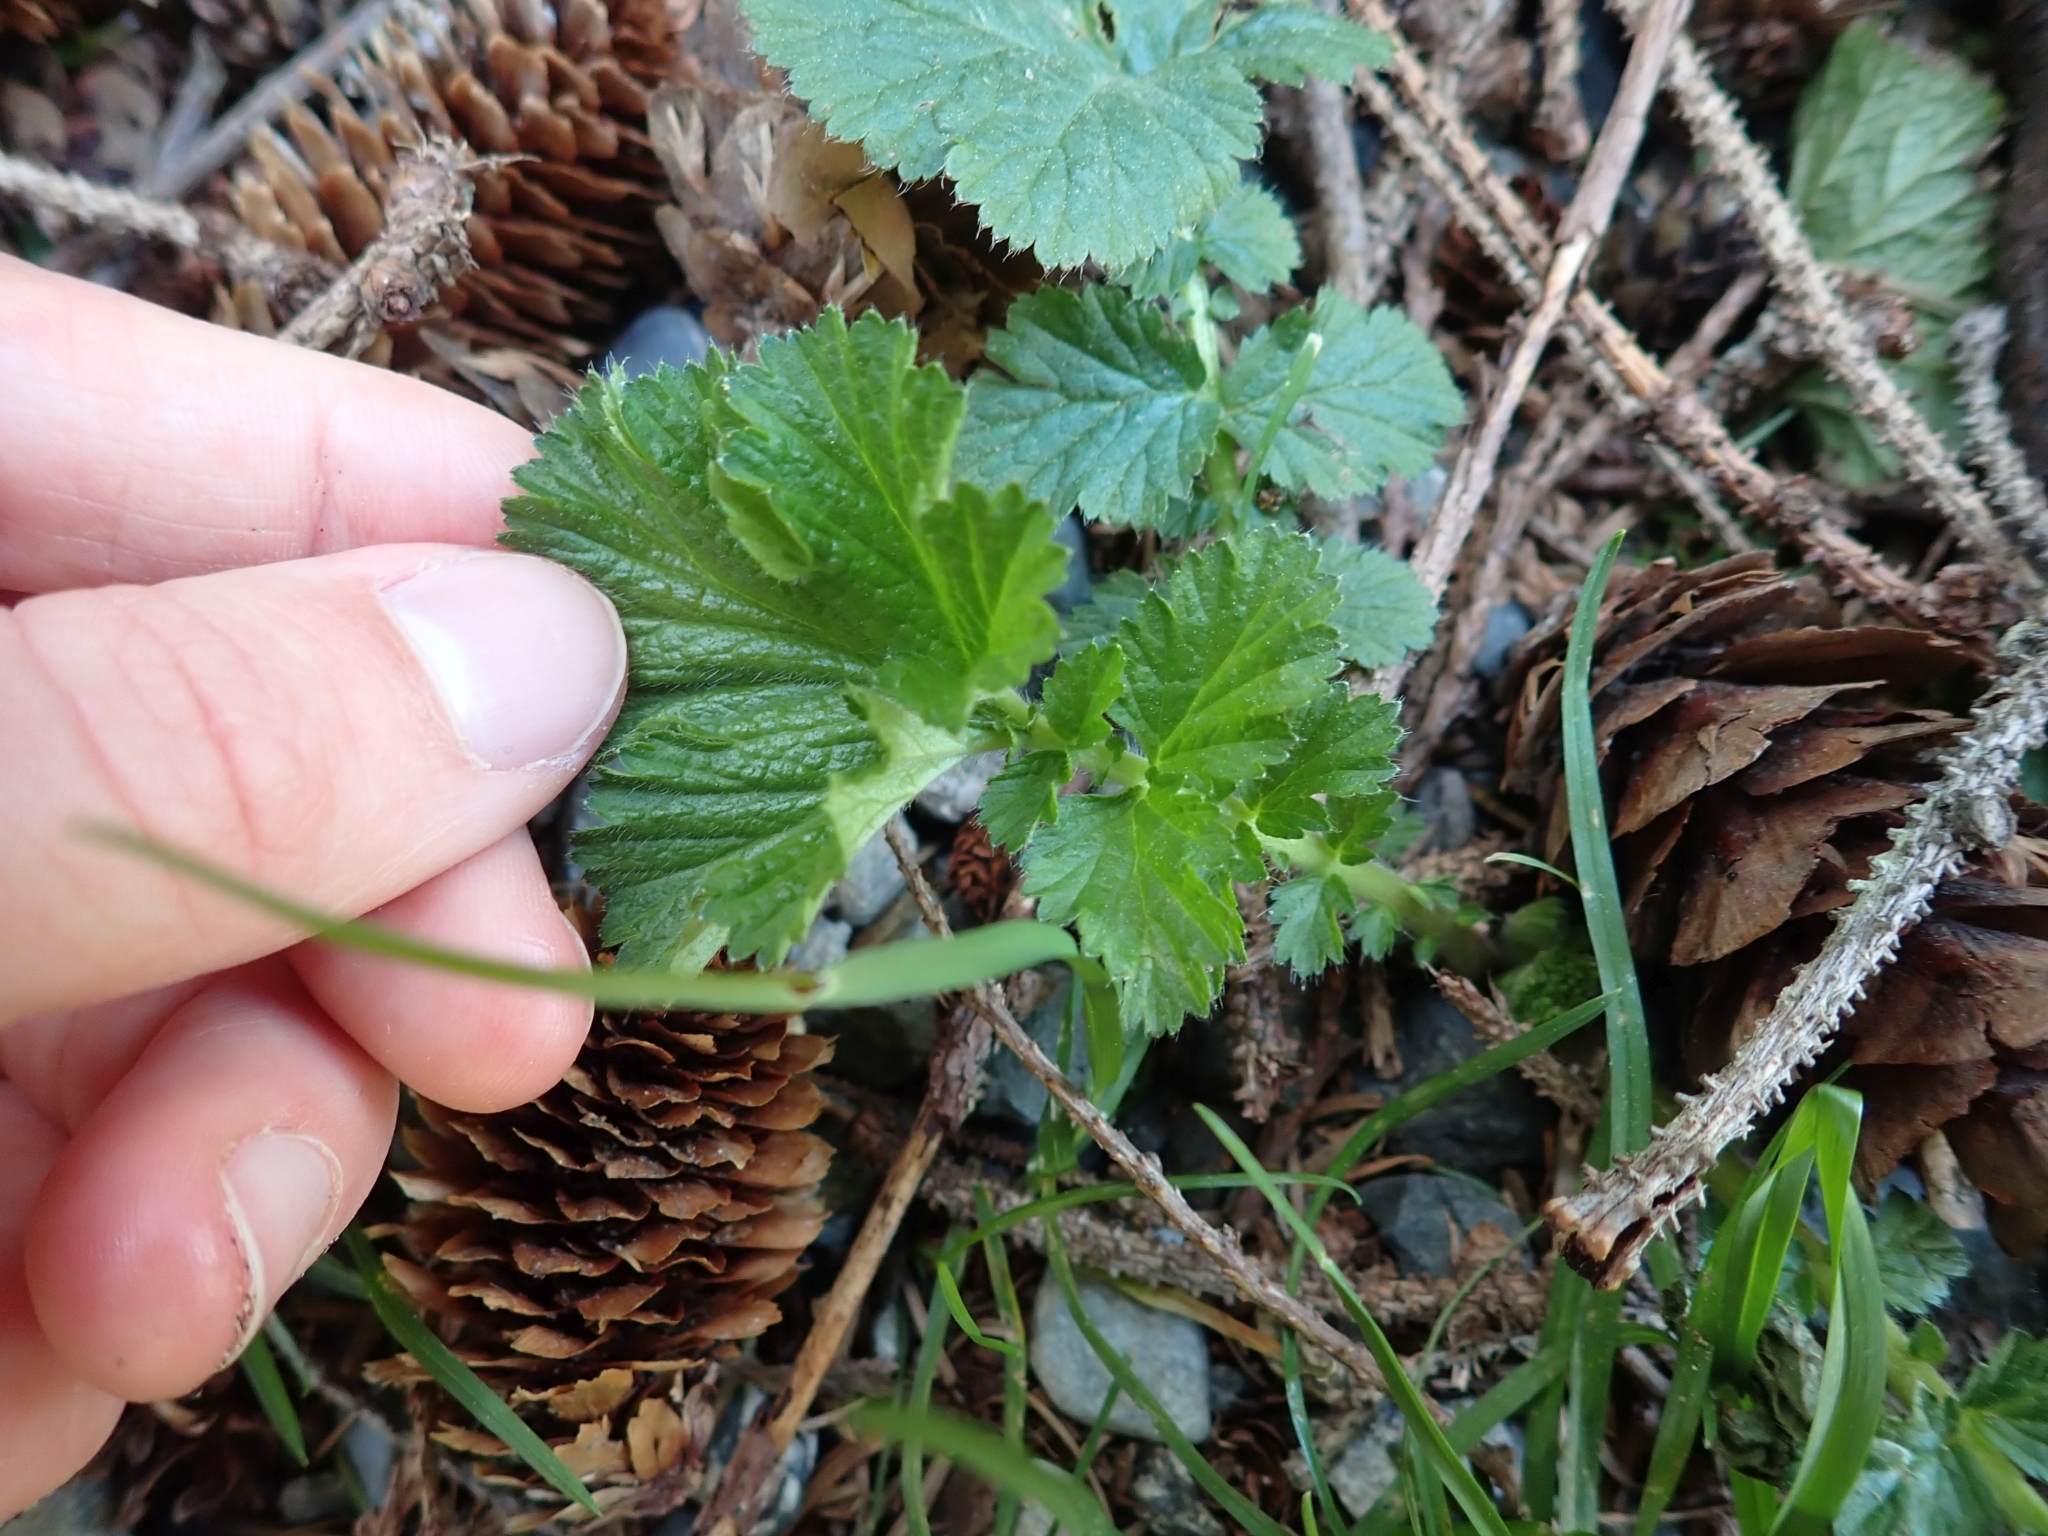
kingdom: Plantae
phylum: Tracheophyta
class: Magnoliopsida
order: Rosales
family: Rosaceae
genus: Geum
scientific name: Geum macrophyllum
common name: Large-leaved avens
